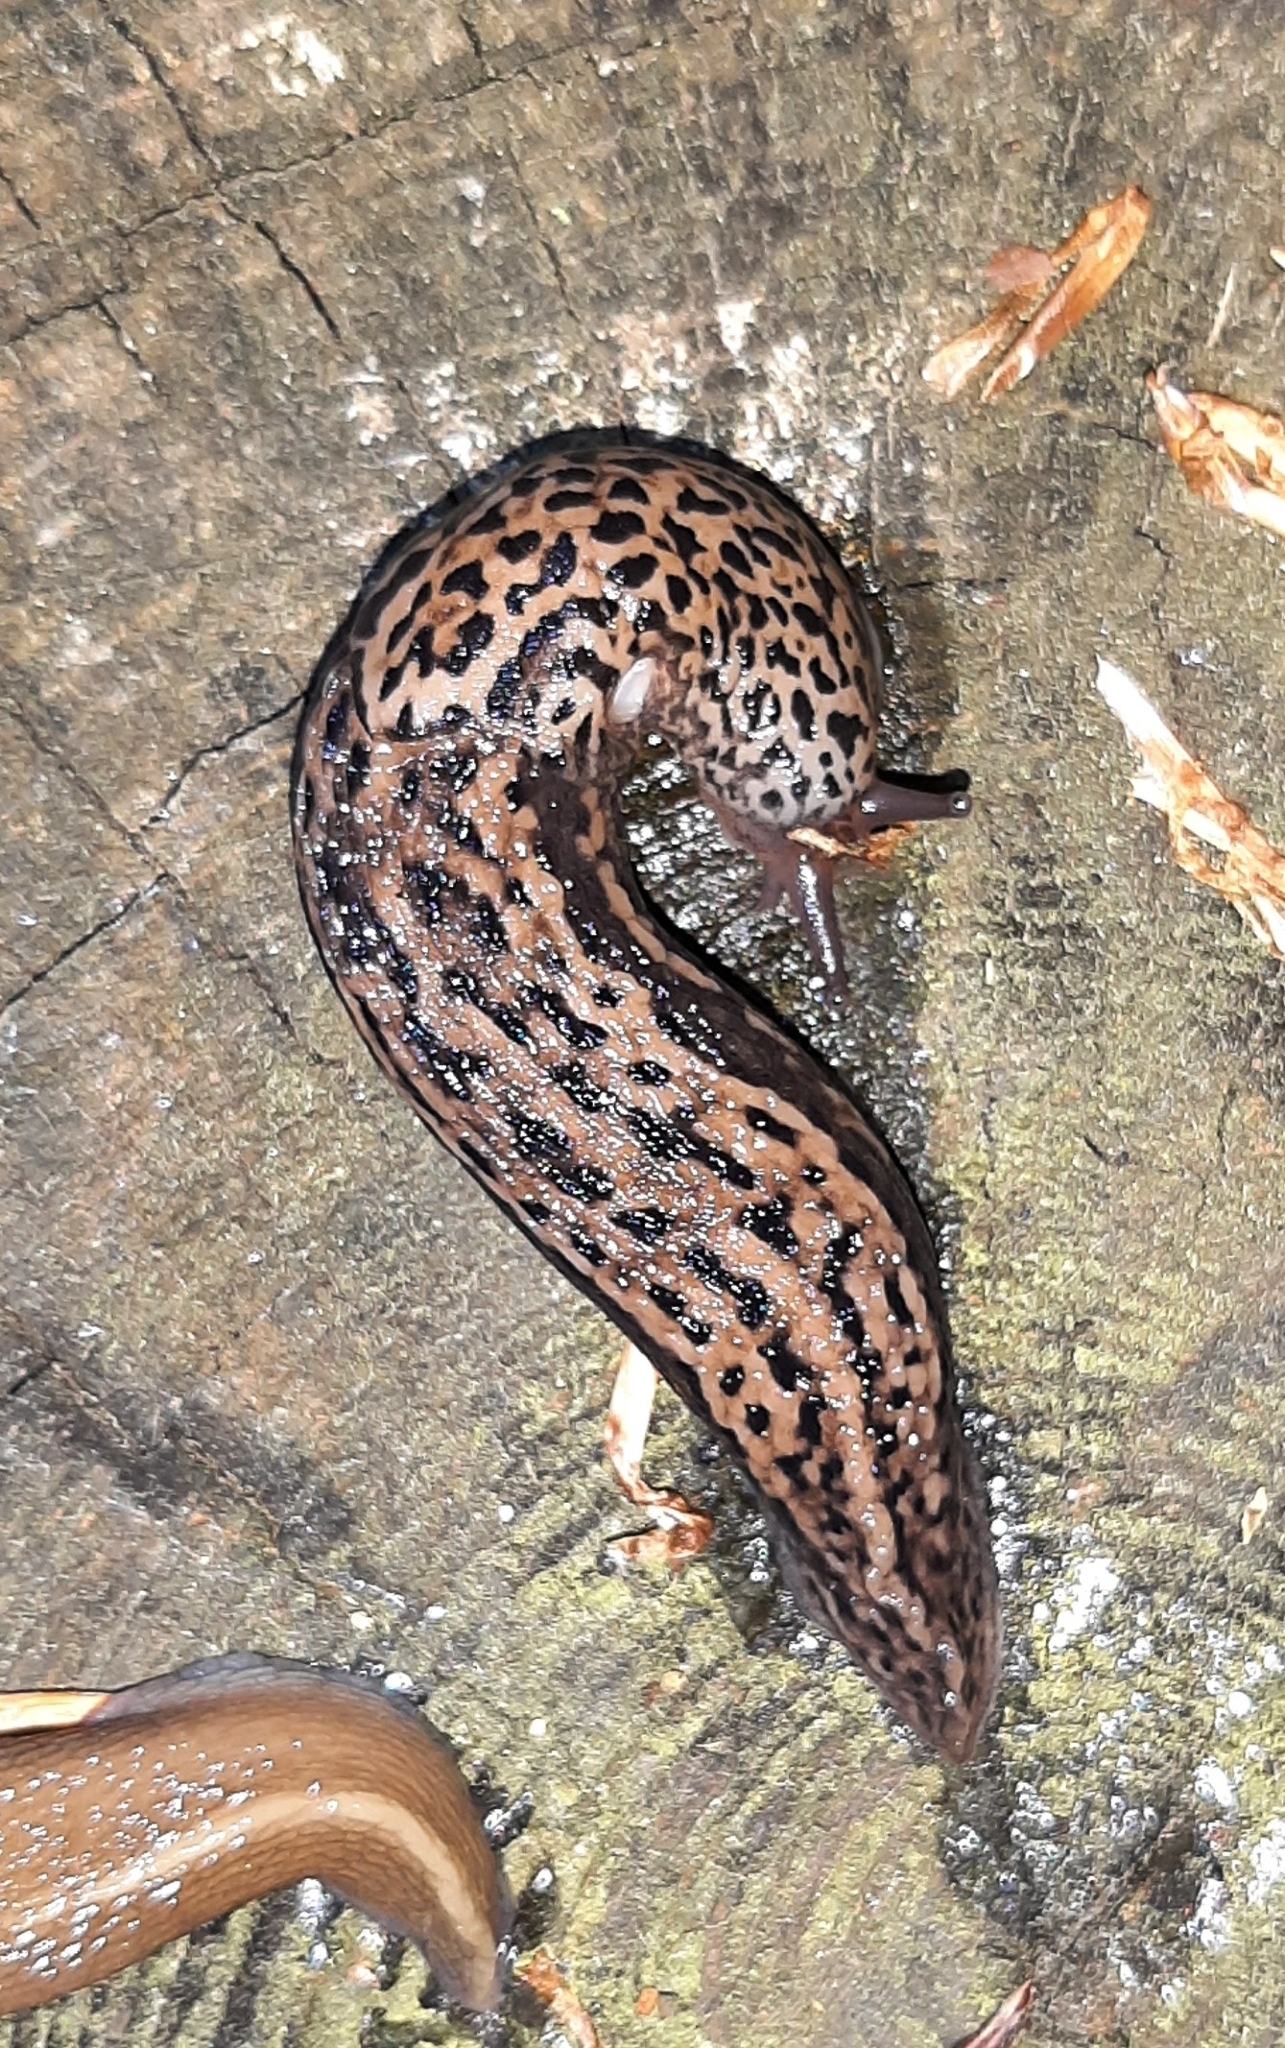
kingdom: Animalia
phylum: Mollusca
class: Gastropoda
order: Stylommatophora
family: Limacidae
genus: Limax
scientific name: Limax maximus
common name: Great grey slug
